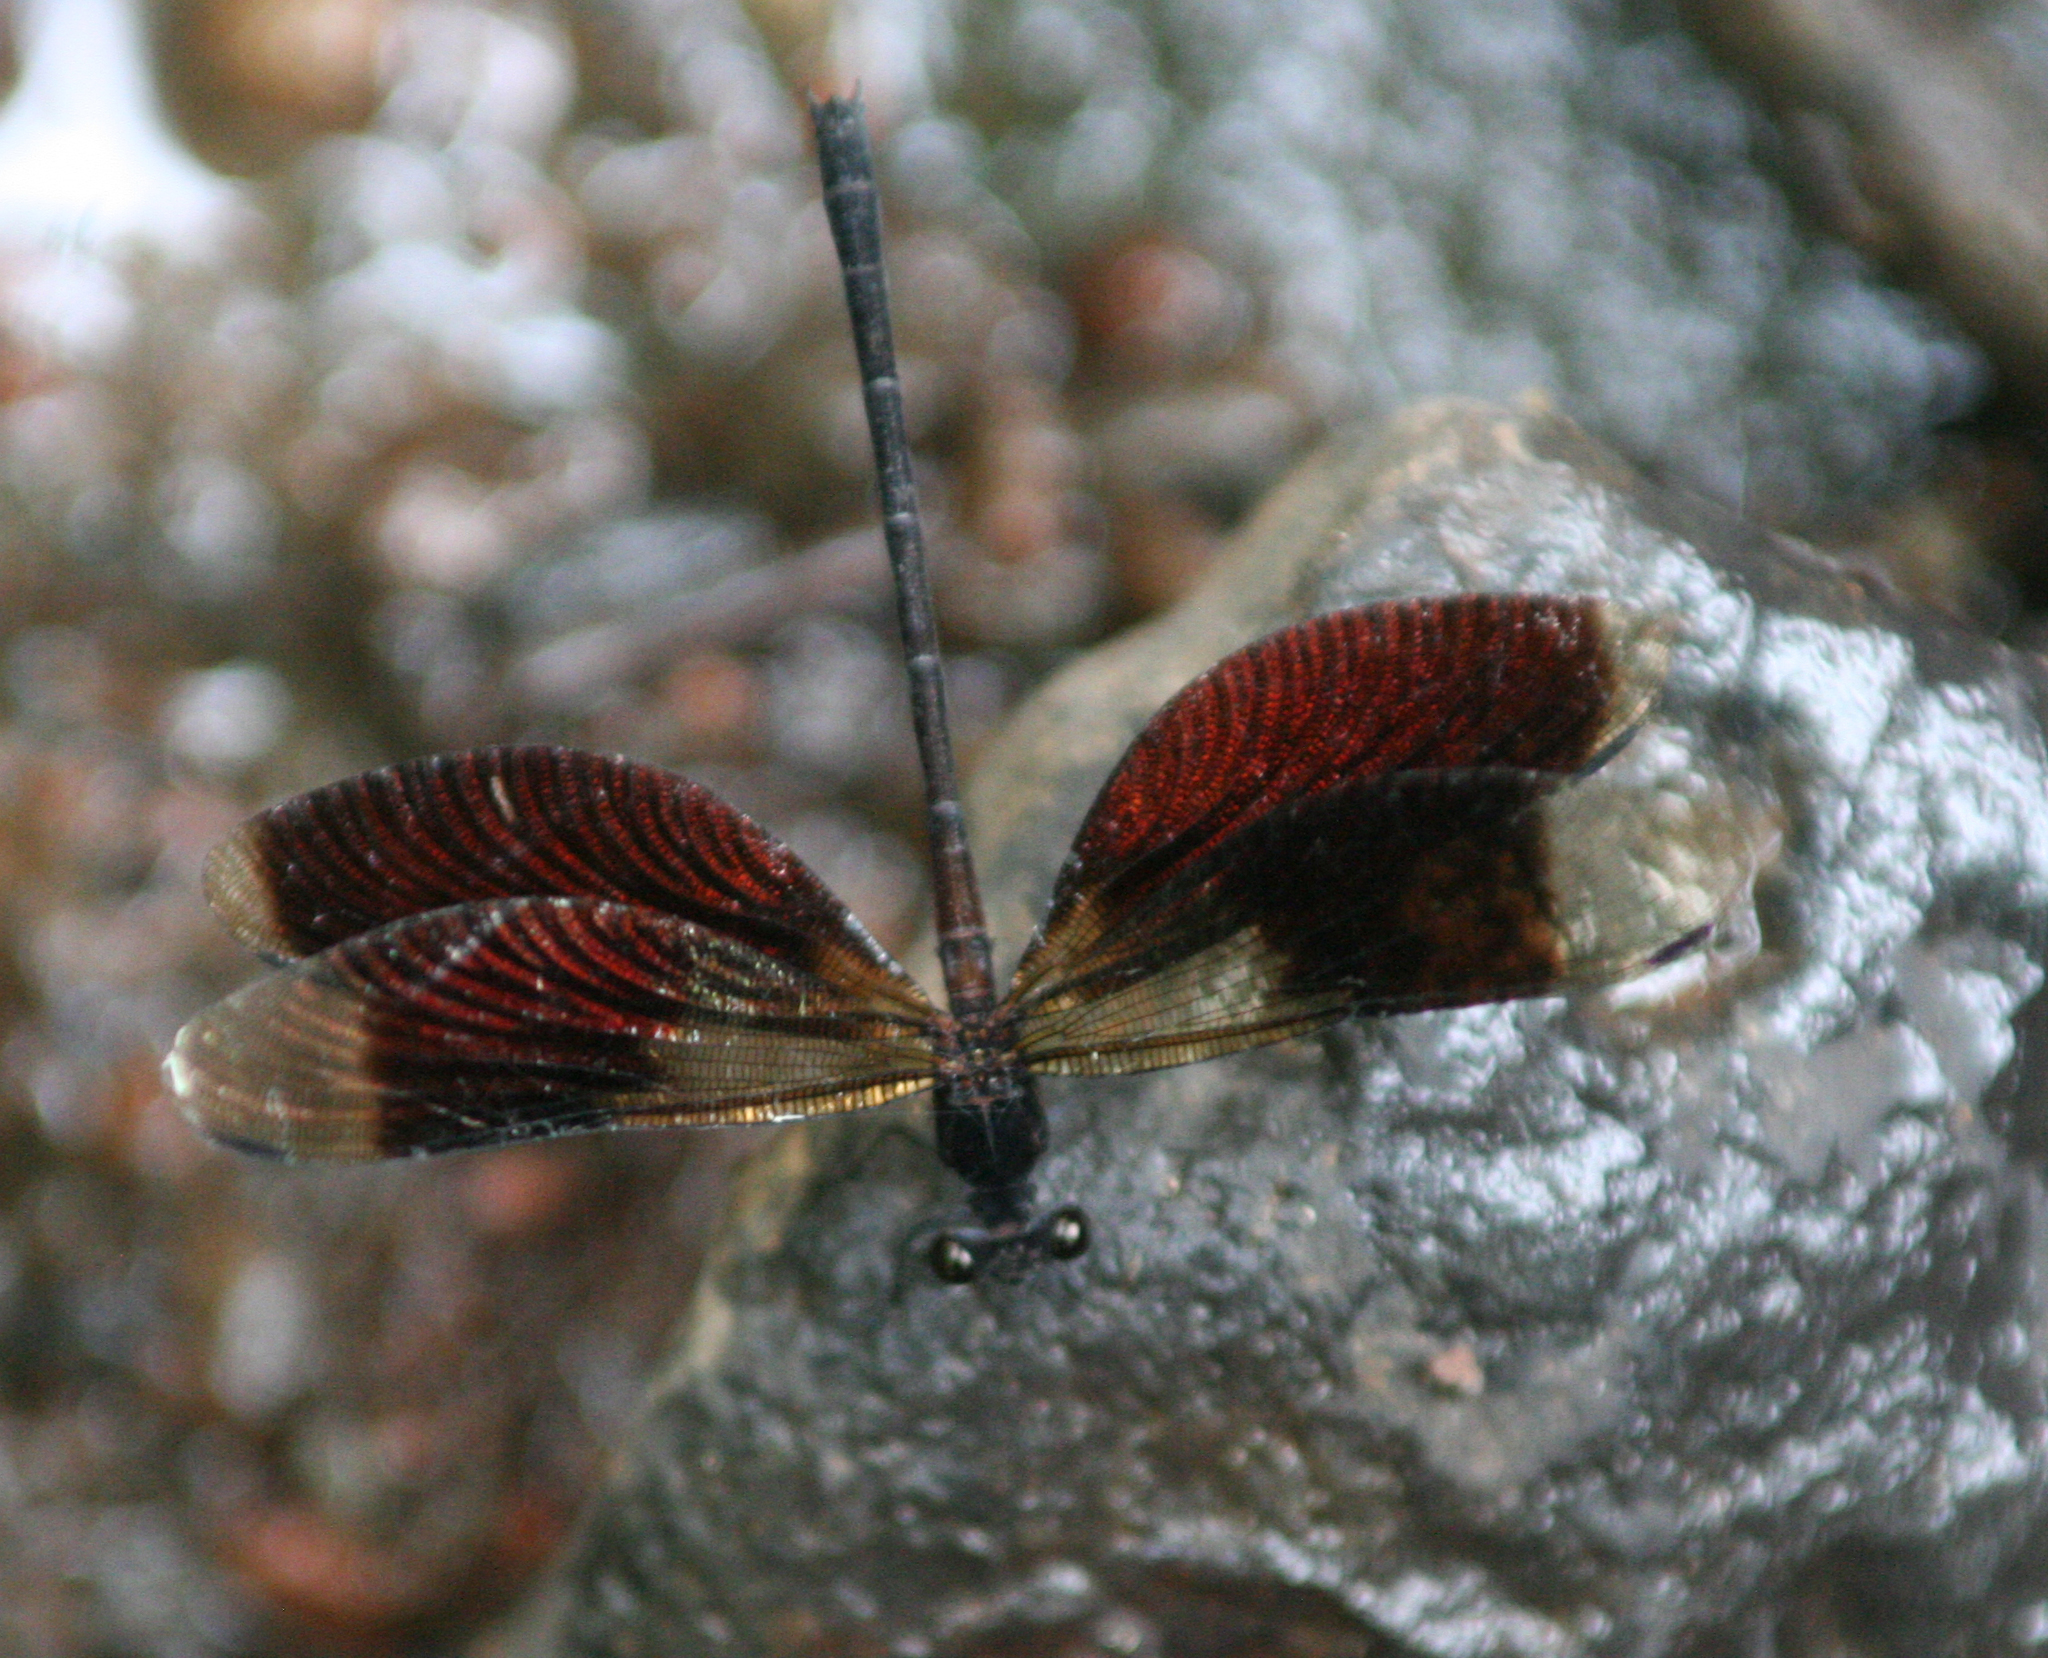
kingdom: Animalia
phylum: Arthropoda
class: Insecta
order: Odonata
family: Euphaeidae
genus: Euphaea
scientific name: Euphaea inouei
